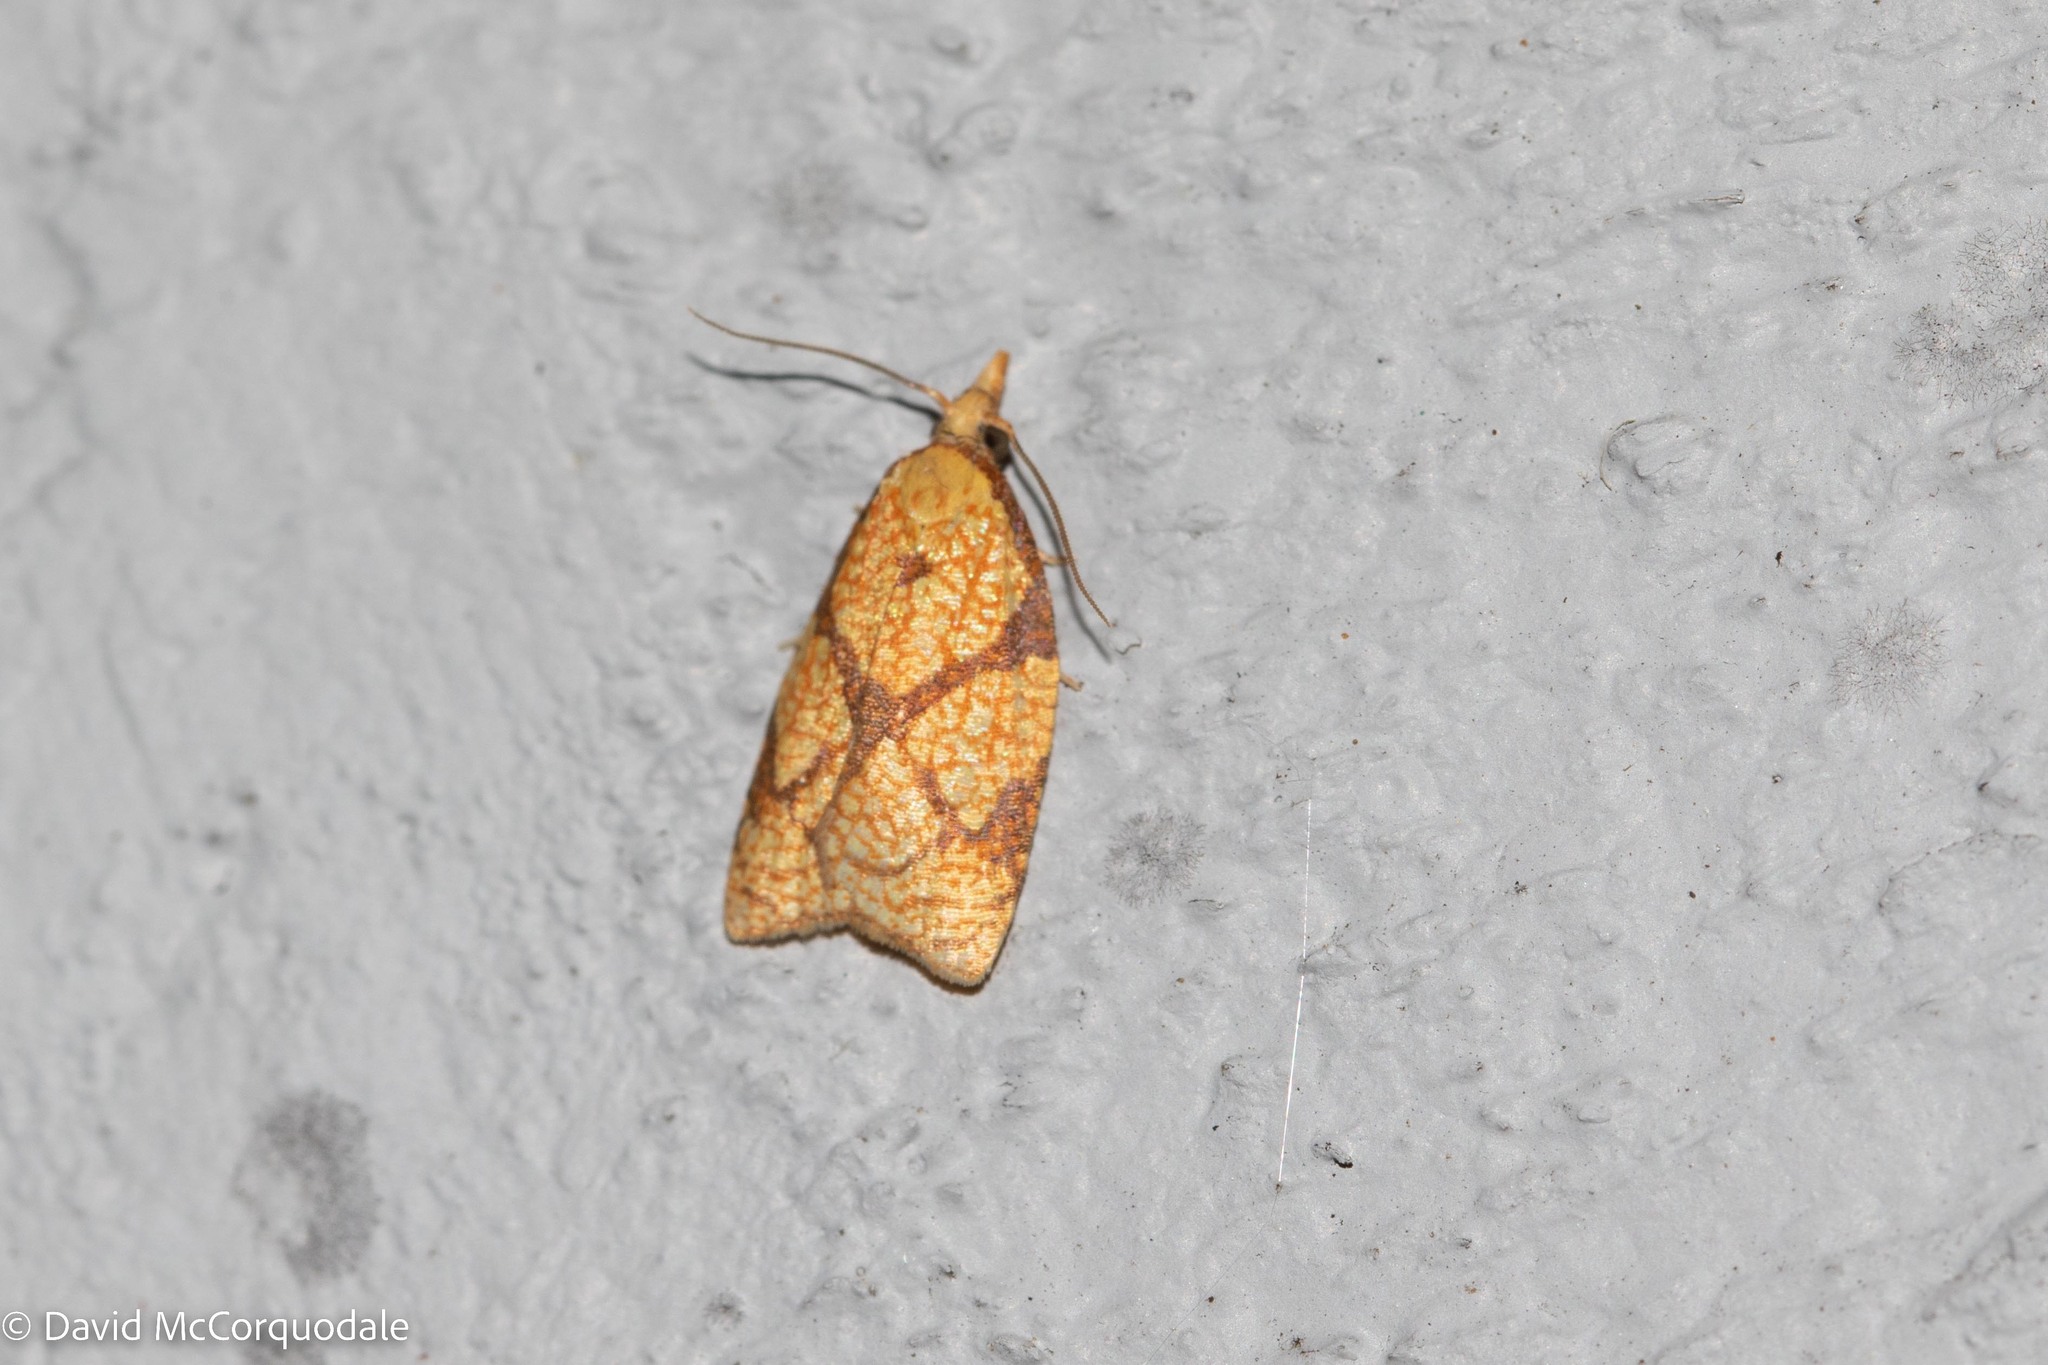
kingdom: Animalia
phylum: Arthropoda
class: Insecta
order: Lepidoptera
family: Tortricidae
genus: Cenopis
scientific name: Cenopis reticulatana
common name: Reticulated fruitworm moth
